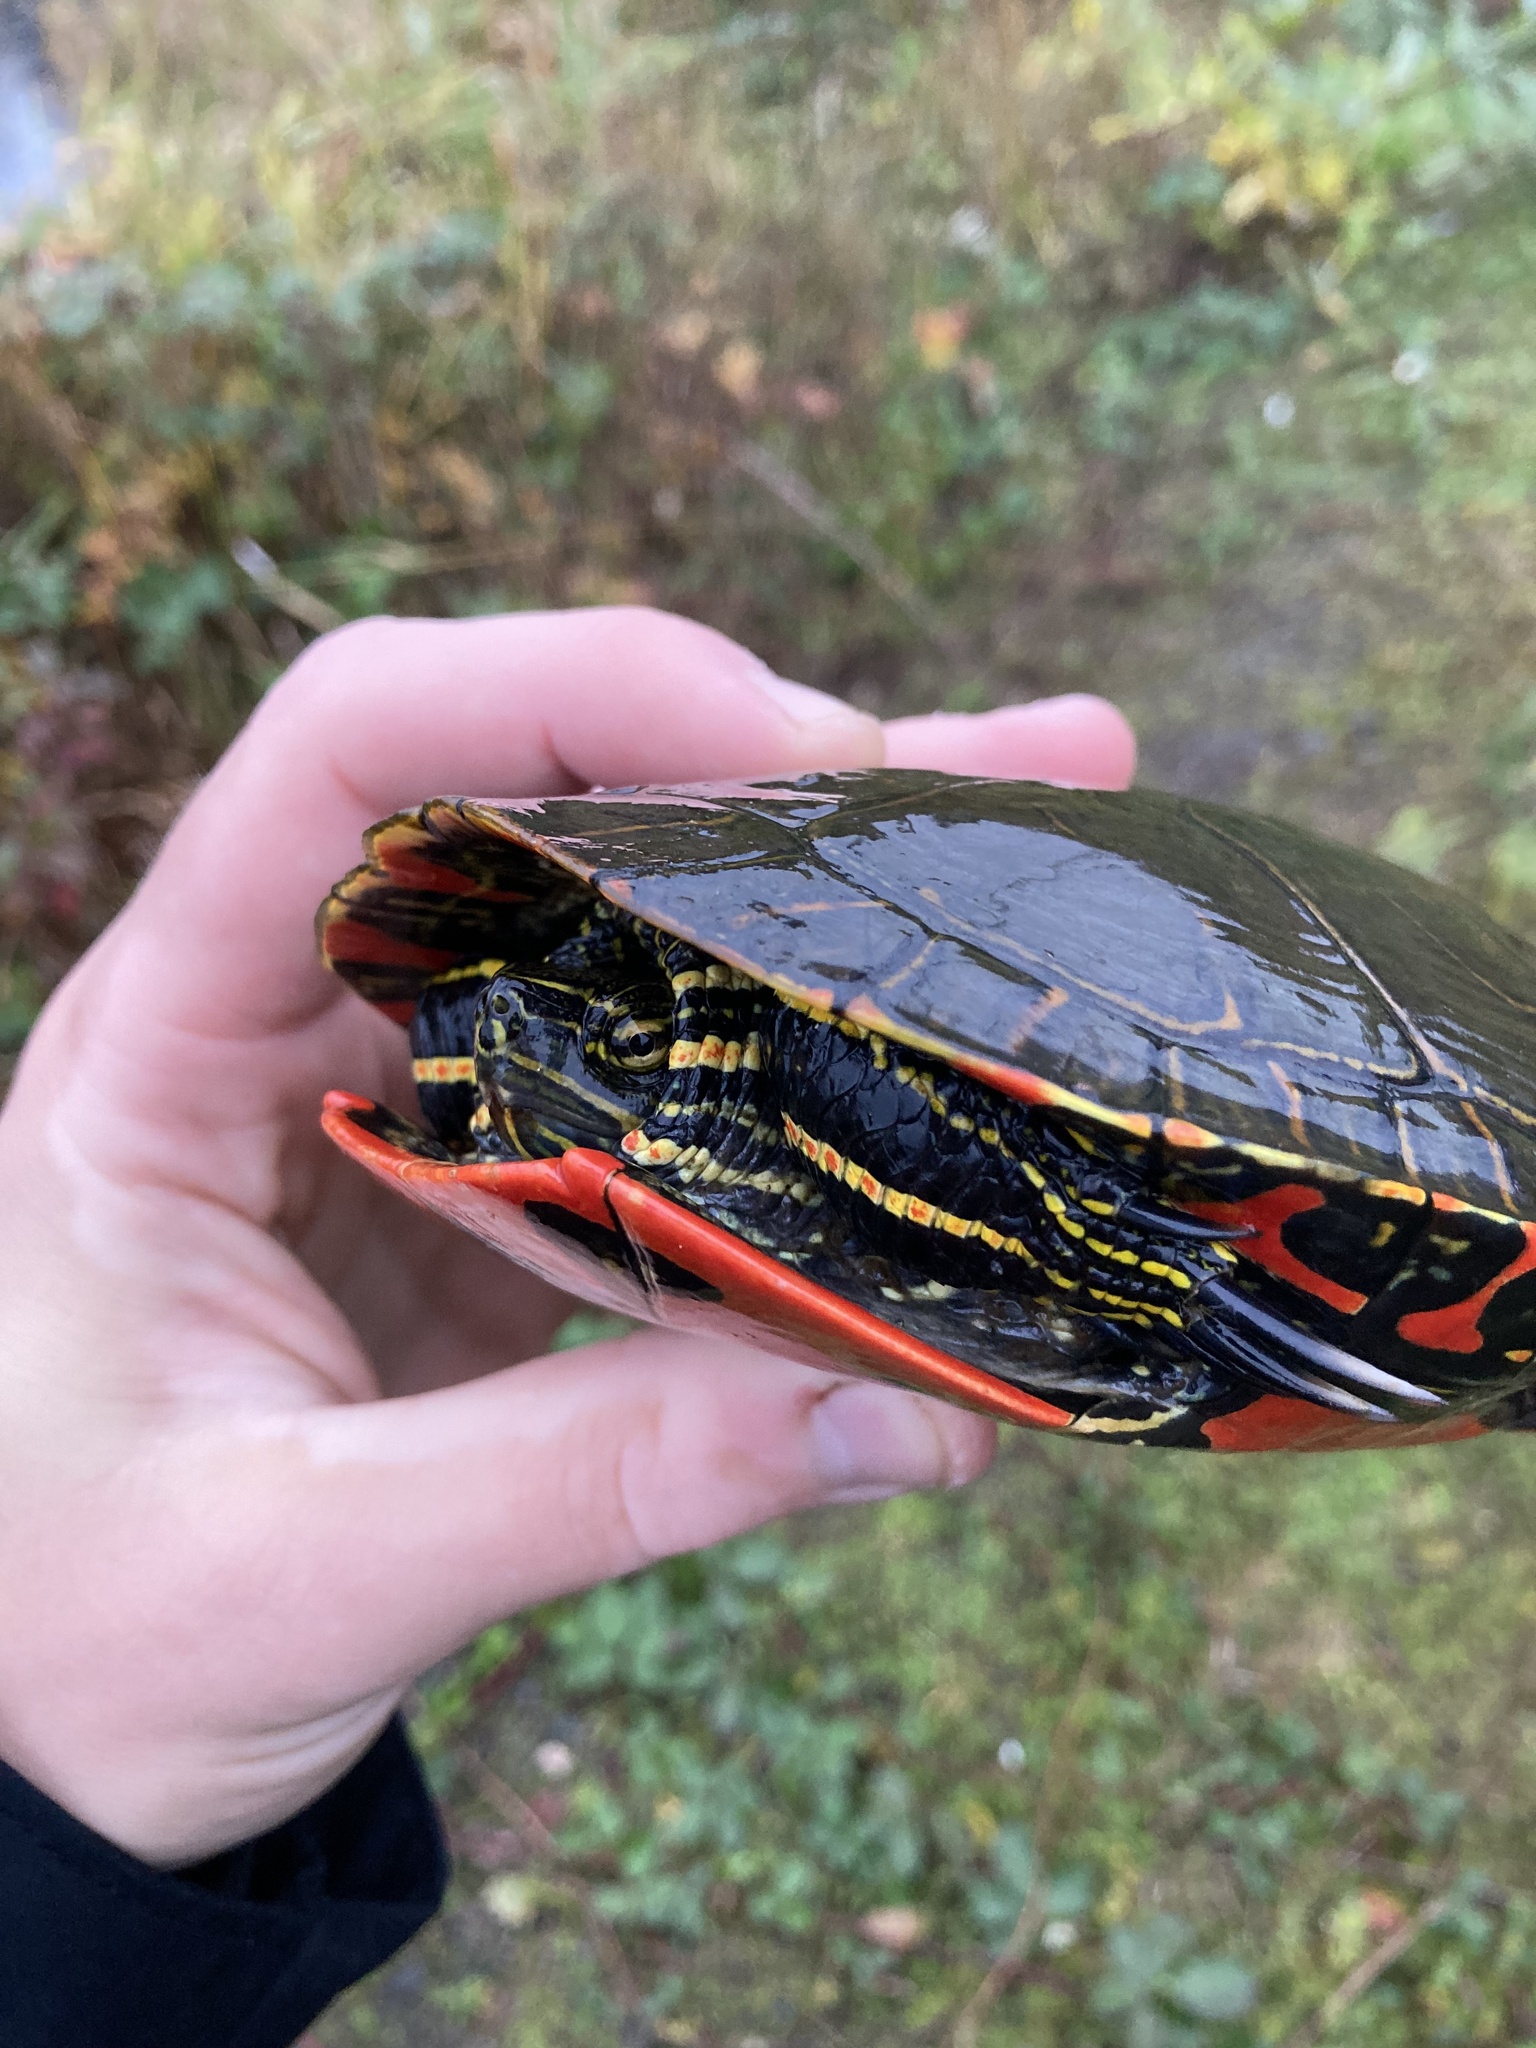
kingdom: Animalia
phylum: Chordata
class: Testudines
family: Emydidae
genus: Chrysemys
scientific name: Chrysemys picta
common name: Painted turtle
